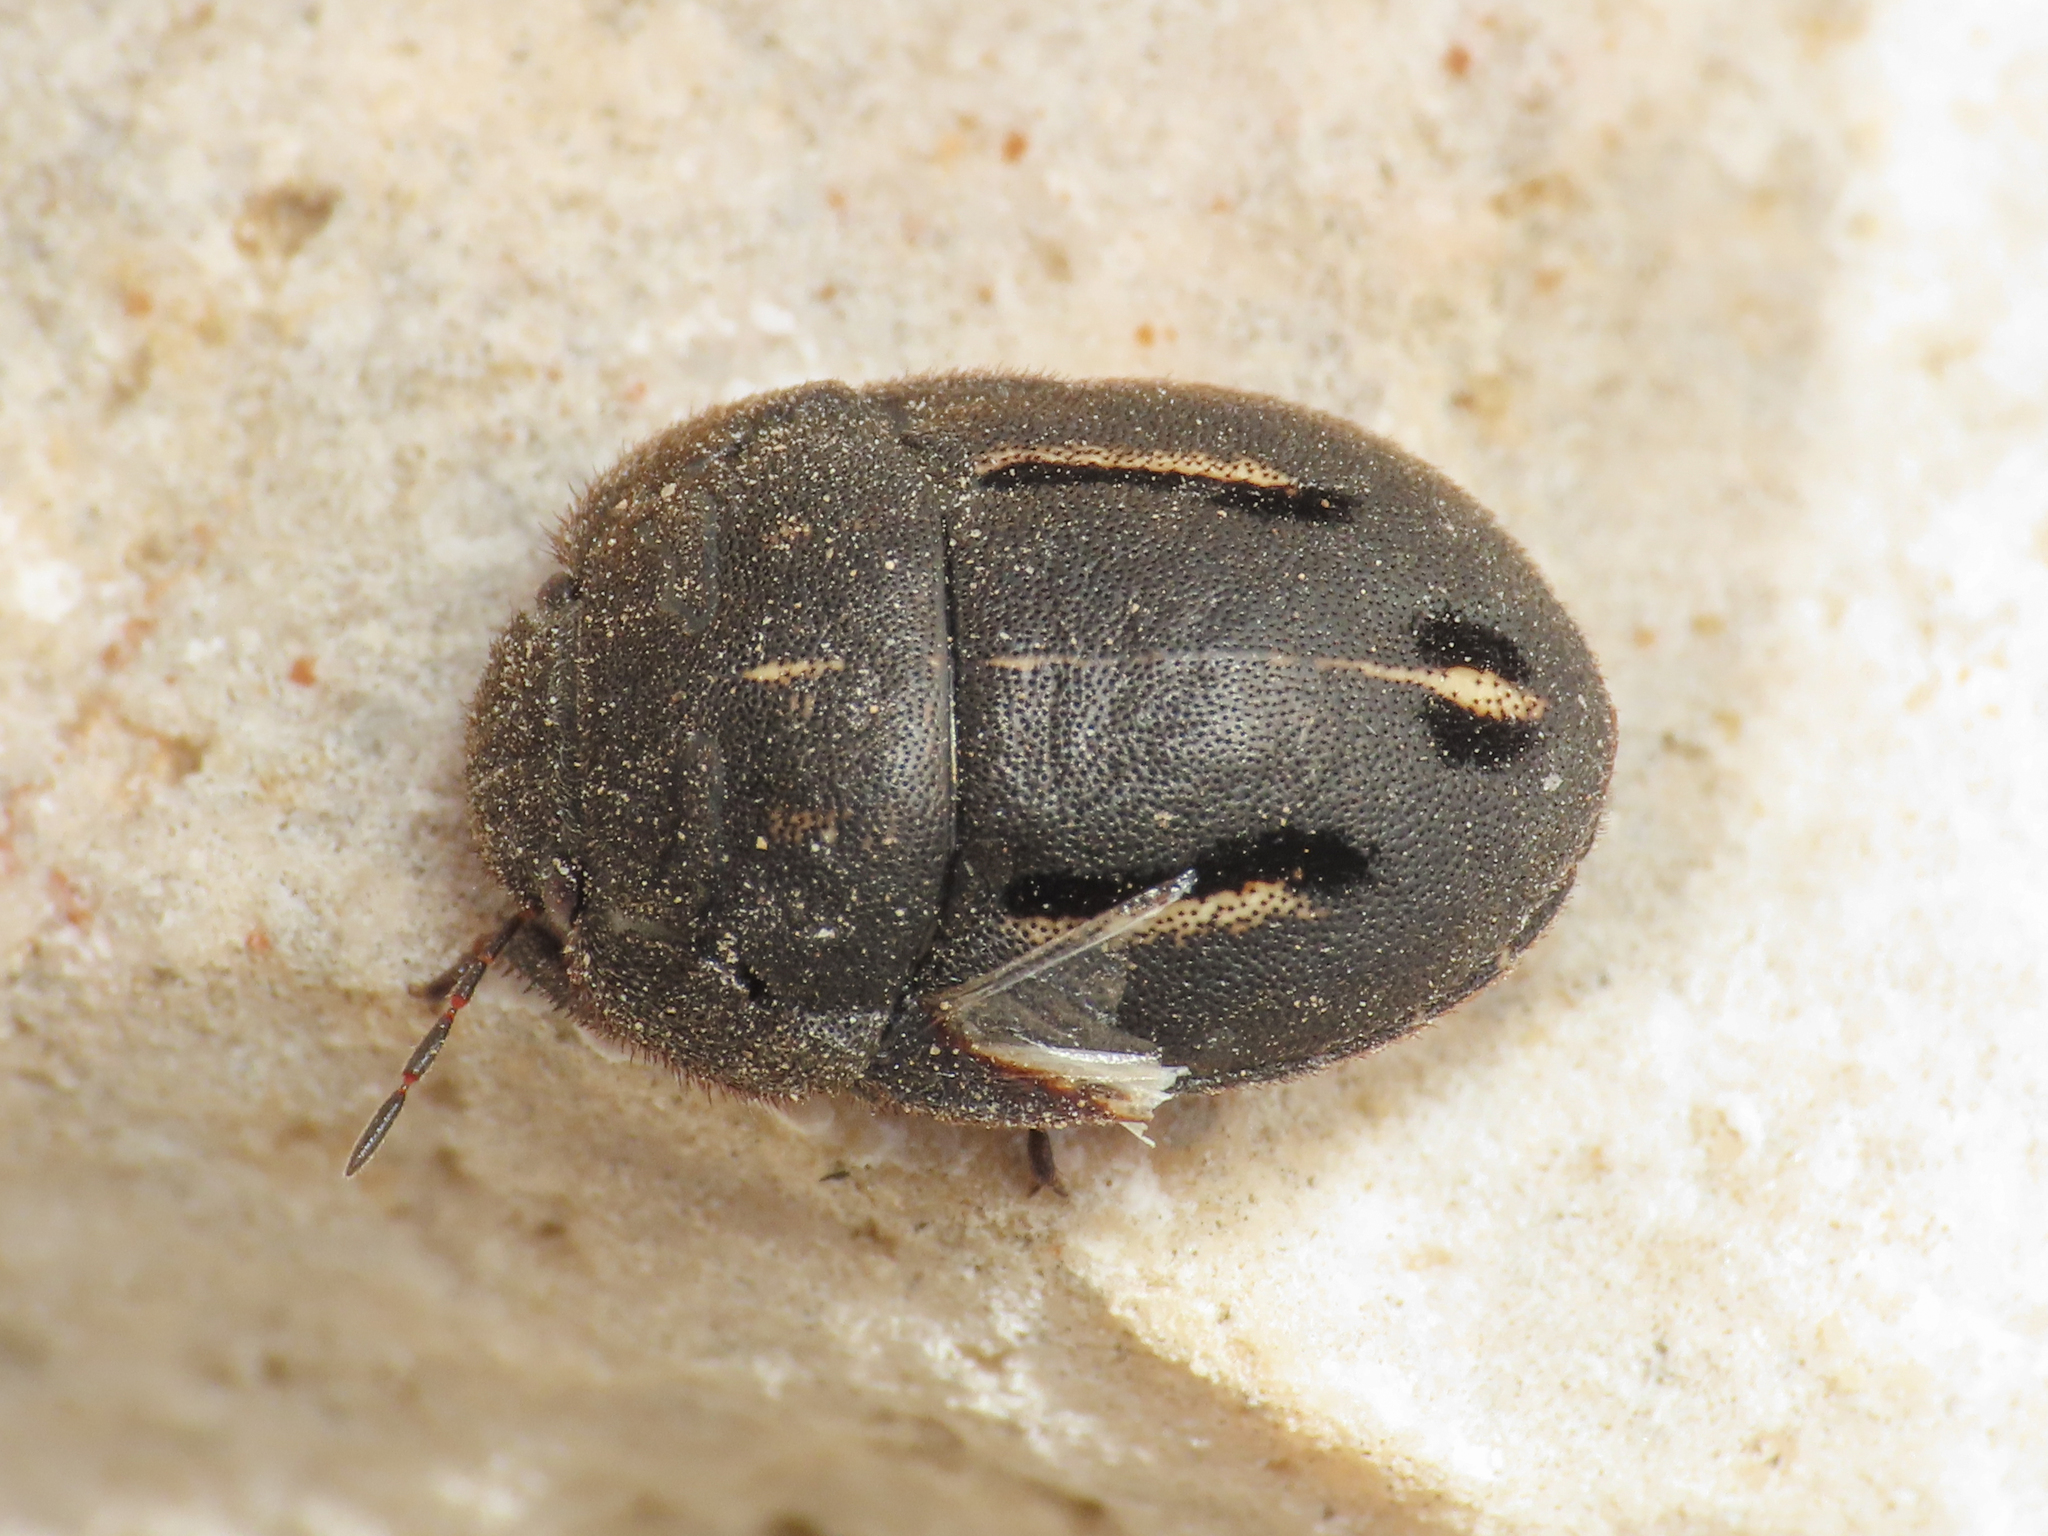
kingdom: Animalia
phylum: Arthropoda
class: Insecta
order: Hemiptera
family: Scutelleridae
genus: Odontoscelis
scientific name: Odontoscelis fuliginosa
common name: Greater streaked shieldbug
